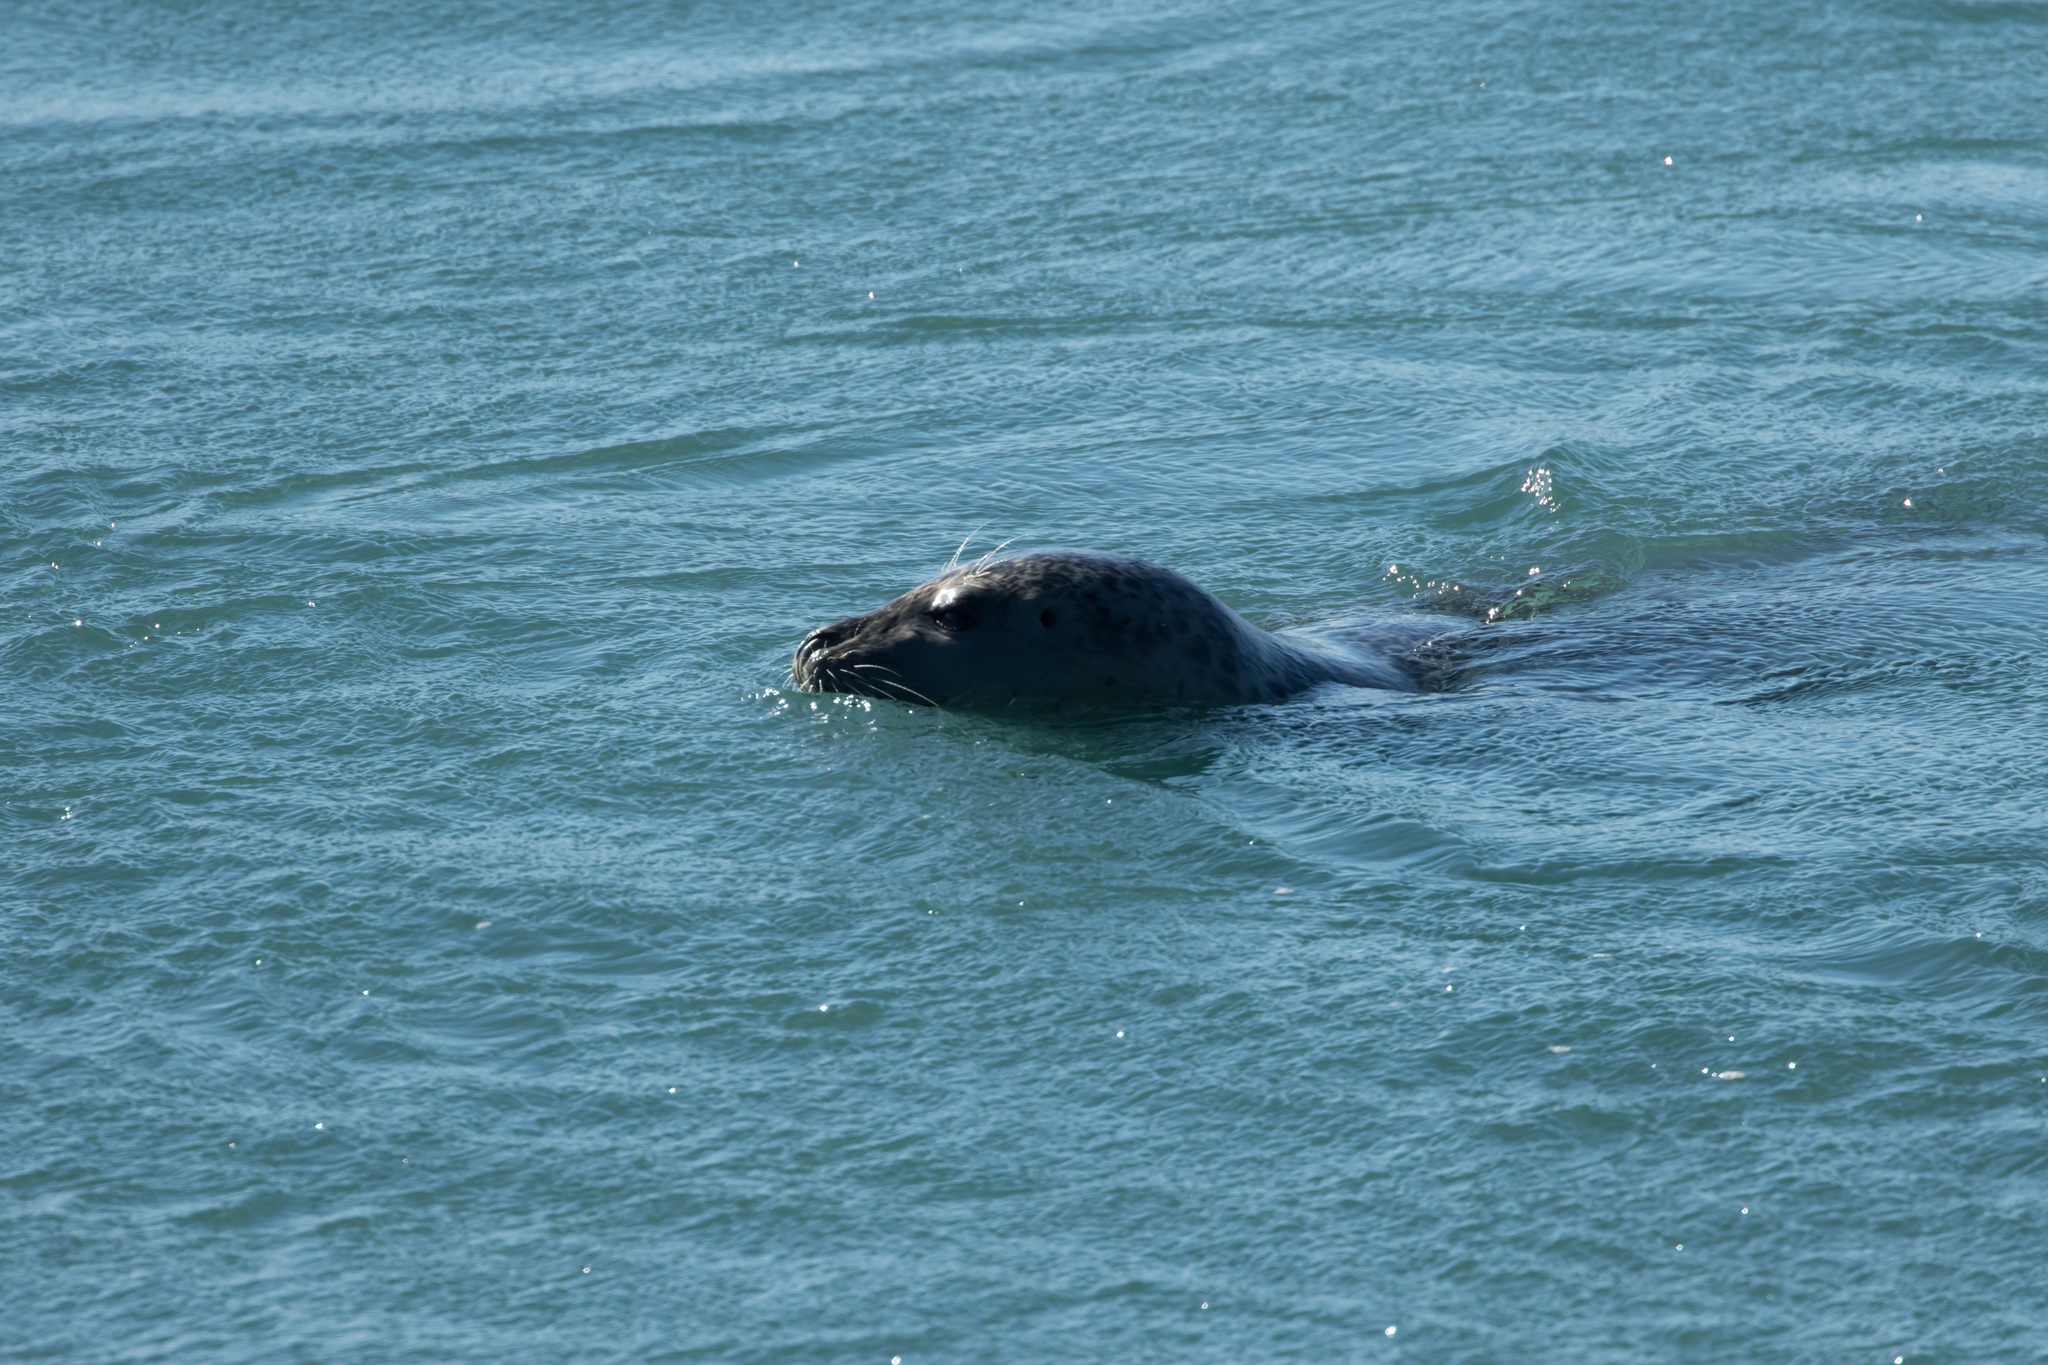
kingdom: Animalia
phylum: Chordata
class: Mammalia
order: Carnivora
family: Phocidae
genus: Phoca
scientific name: Phoca vitulina
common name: Harbor seal
